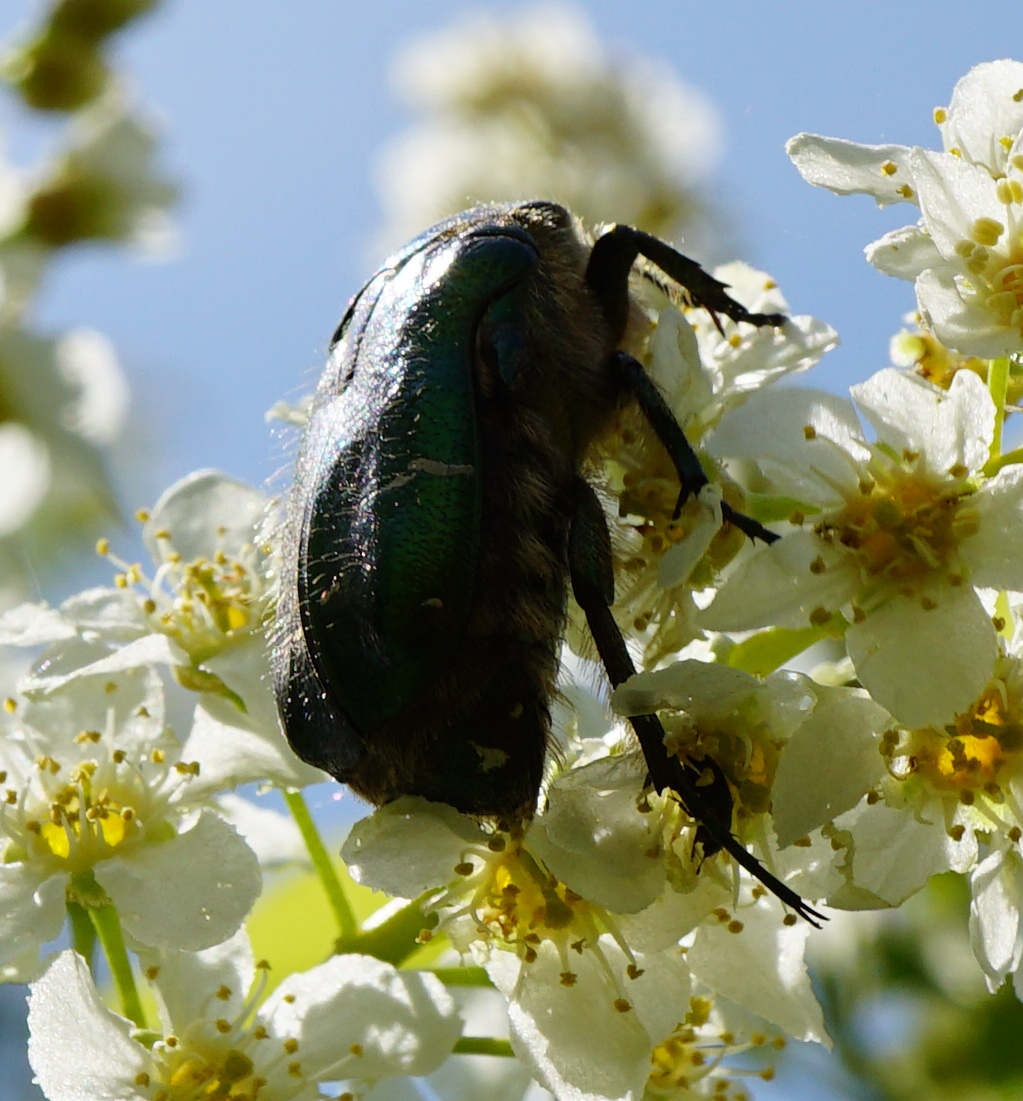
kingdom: Animalia
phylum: Arthropoda
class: Insecta
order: Coleoptera
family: Scarabaeidae
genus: Cetonia
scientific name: Cetonia aurata
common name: Rose chafer
